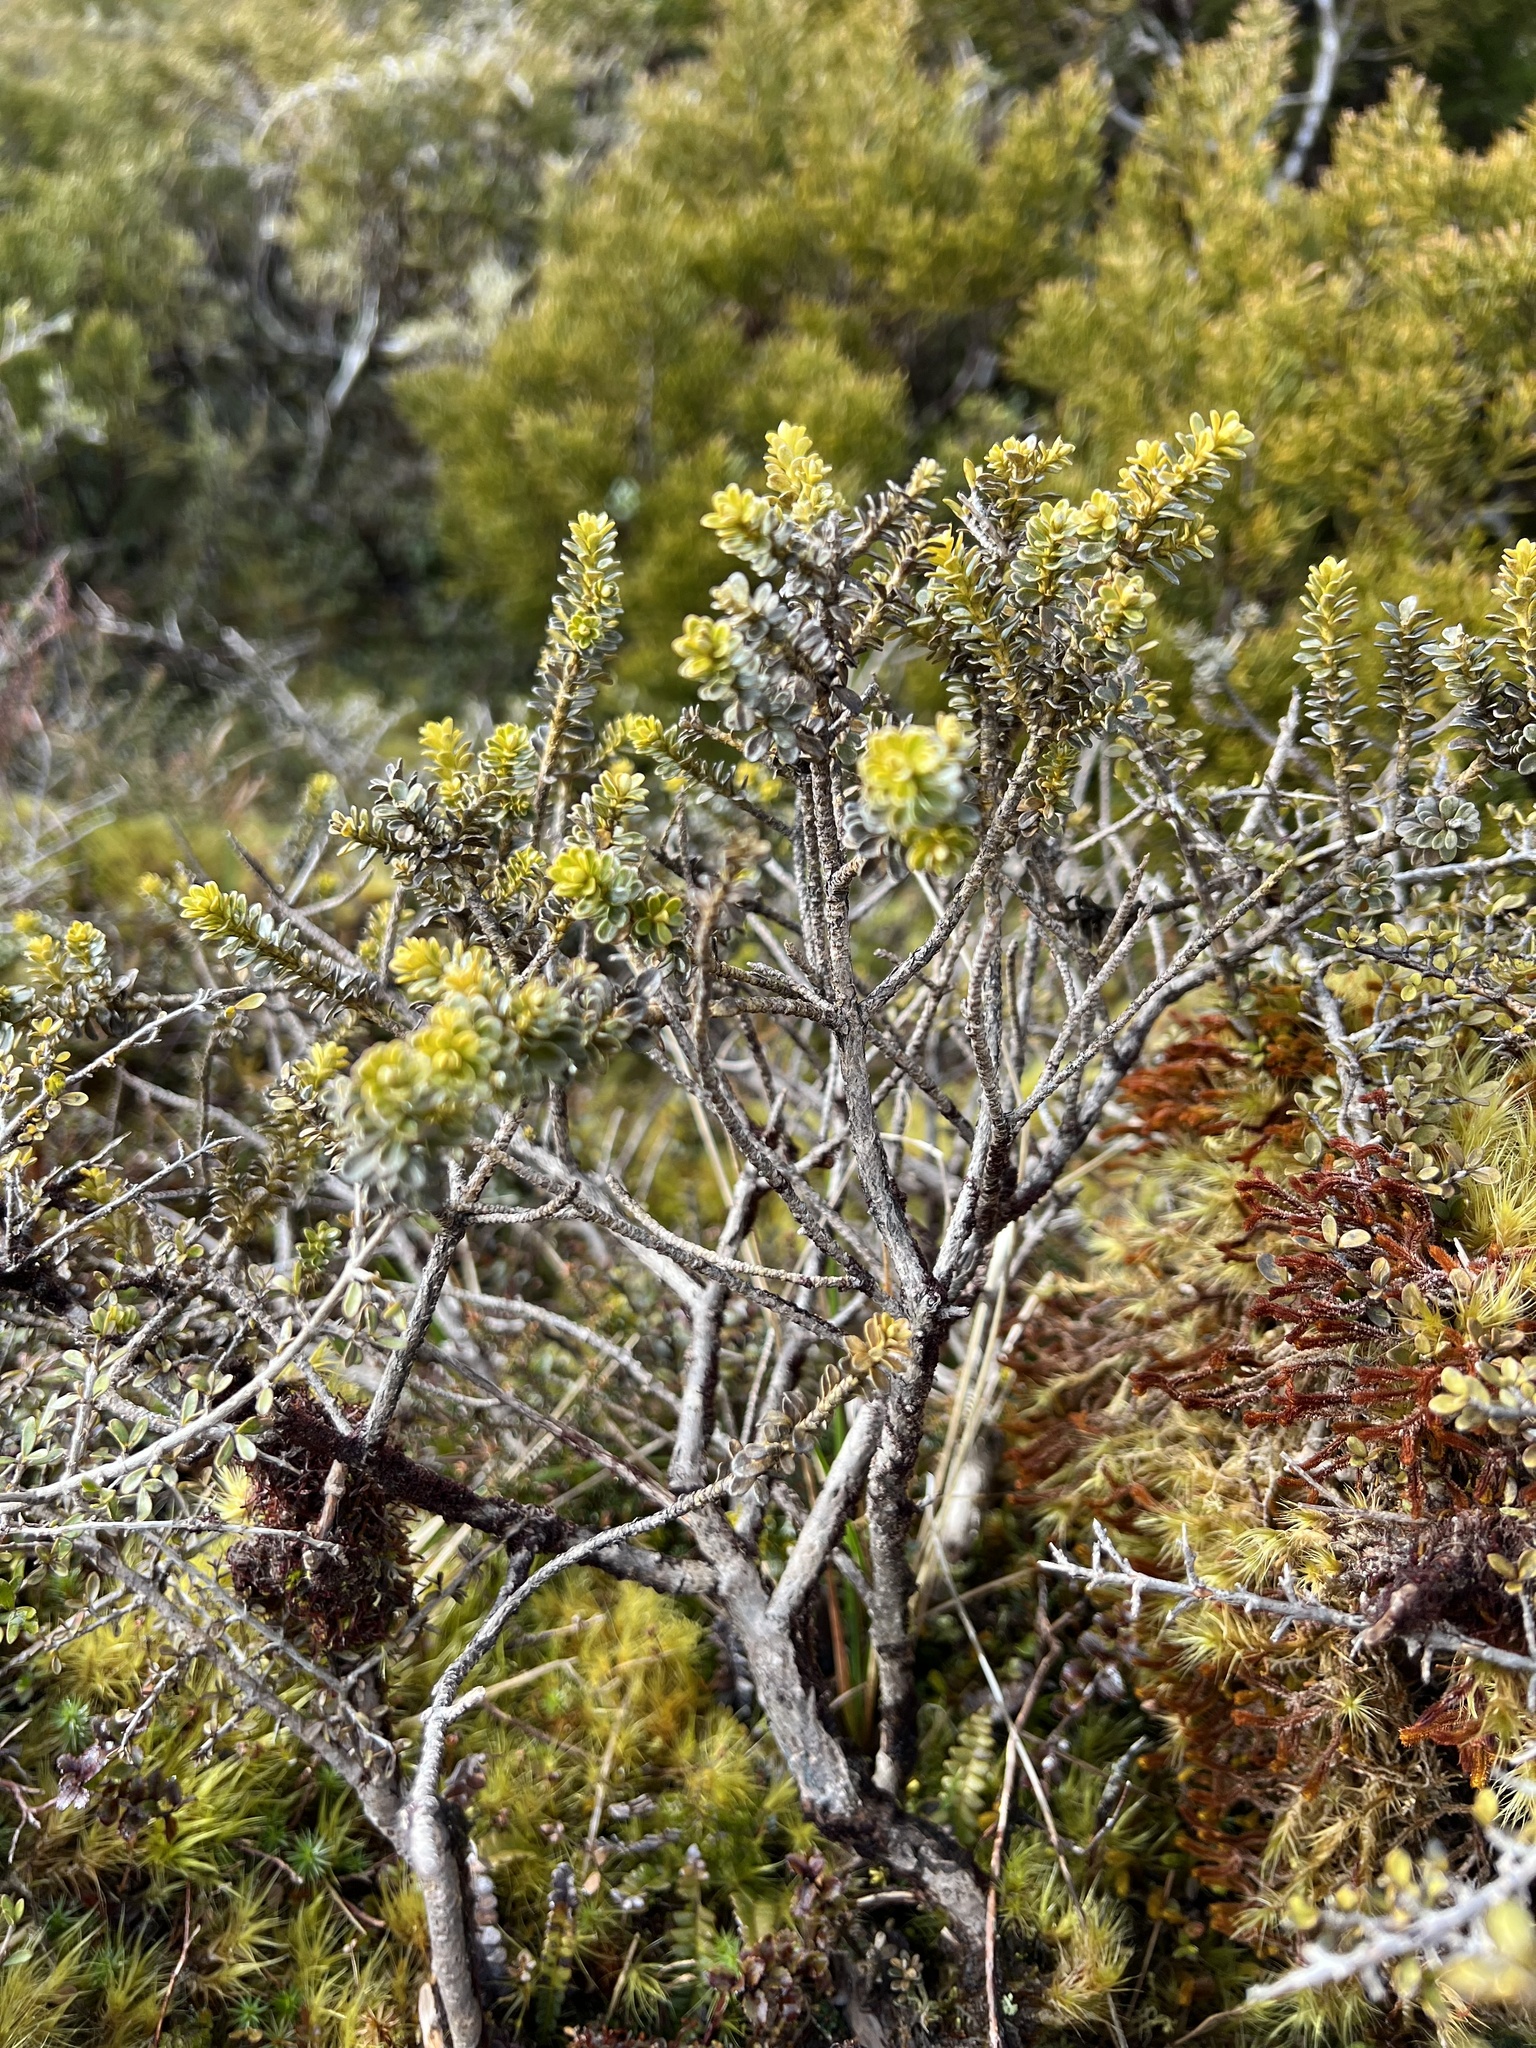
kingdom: Plantae
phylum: Tracheophyta
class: Magnoliopsida
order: Asterales
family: Asteraceae
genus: Ozothamnus
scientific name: Ozothamnus leptophyllus
